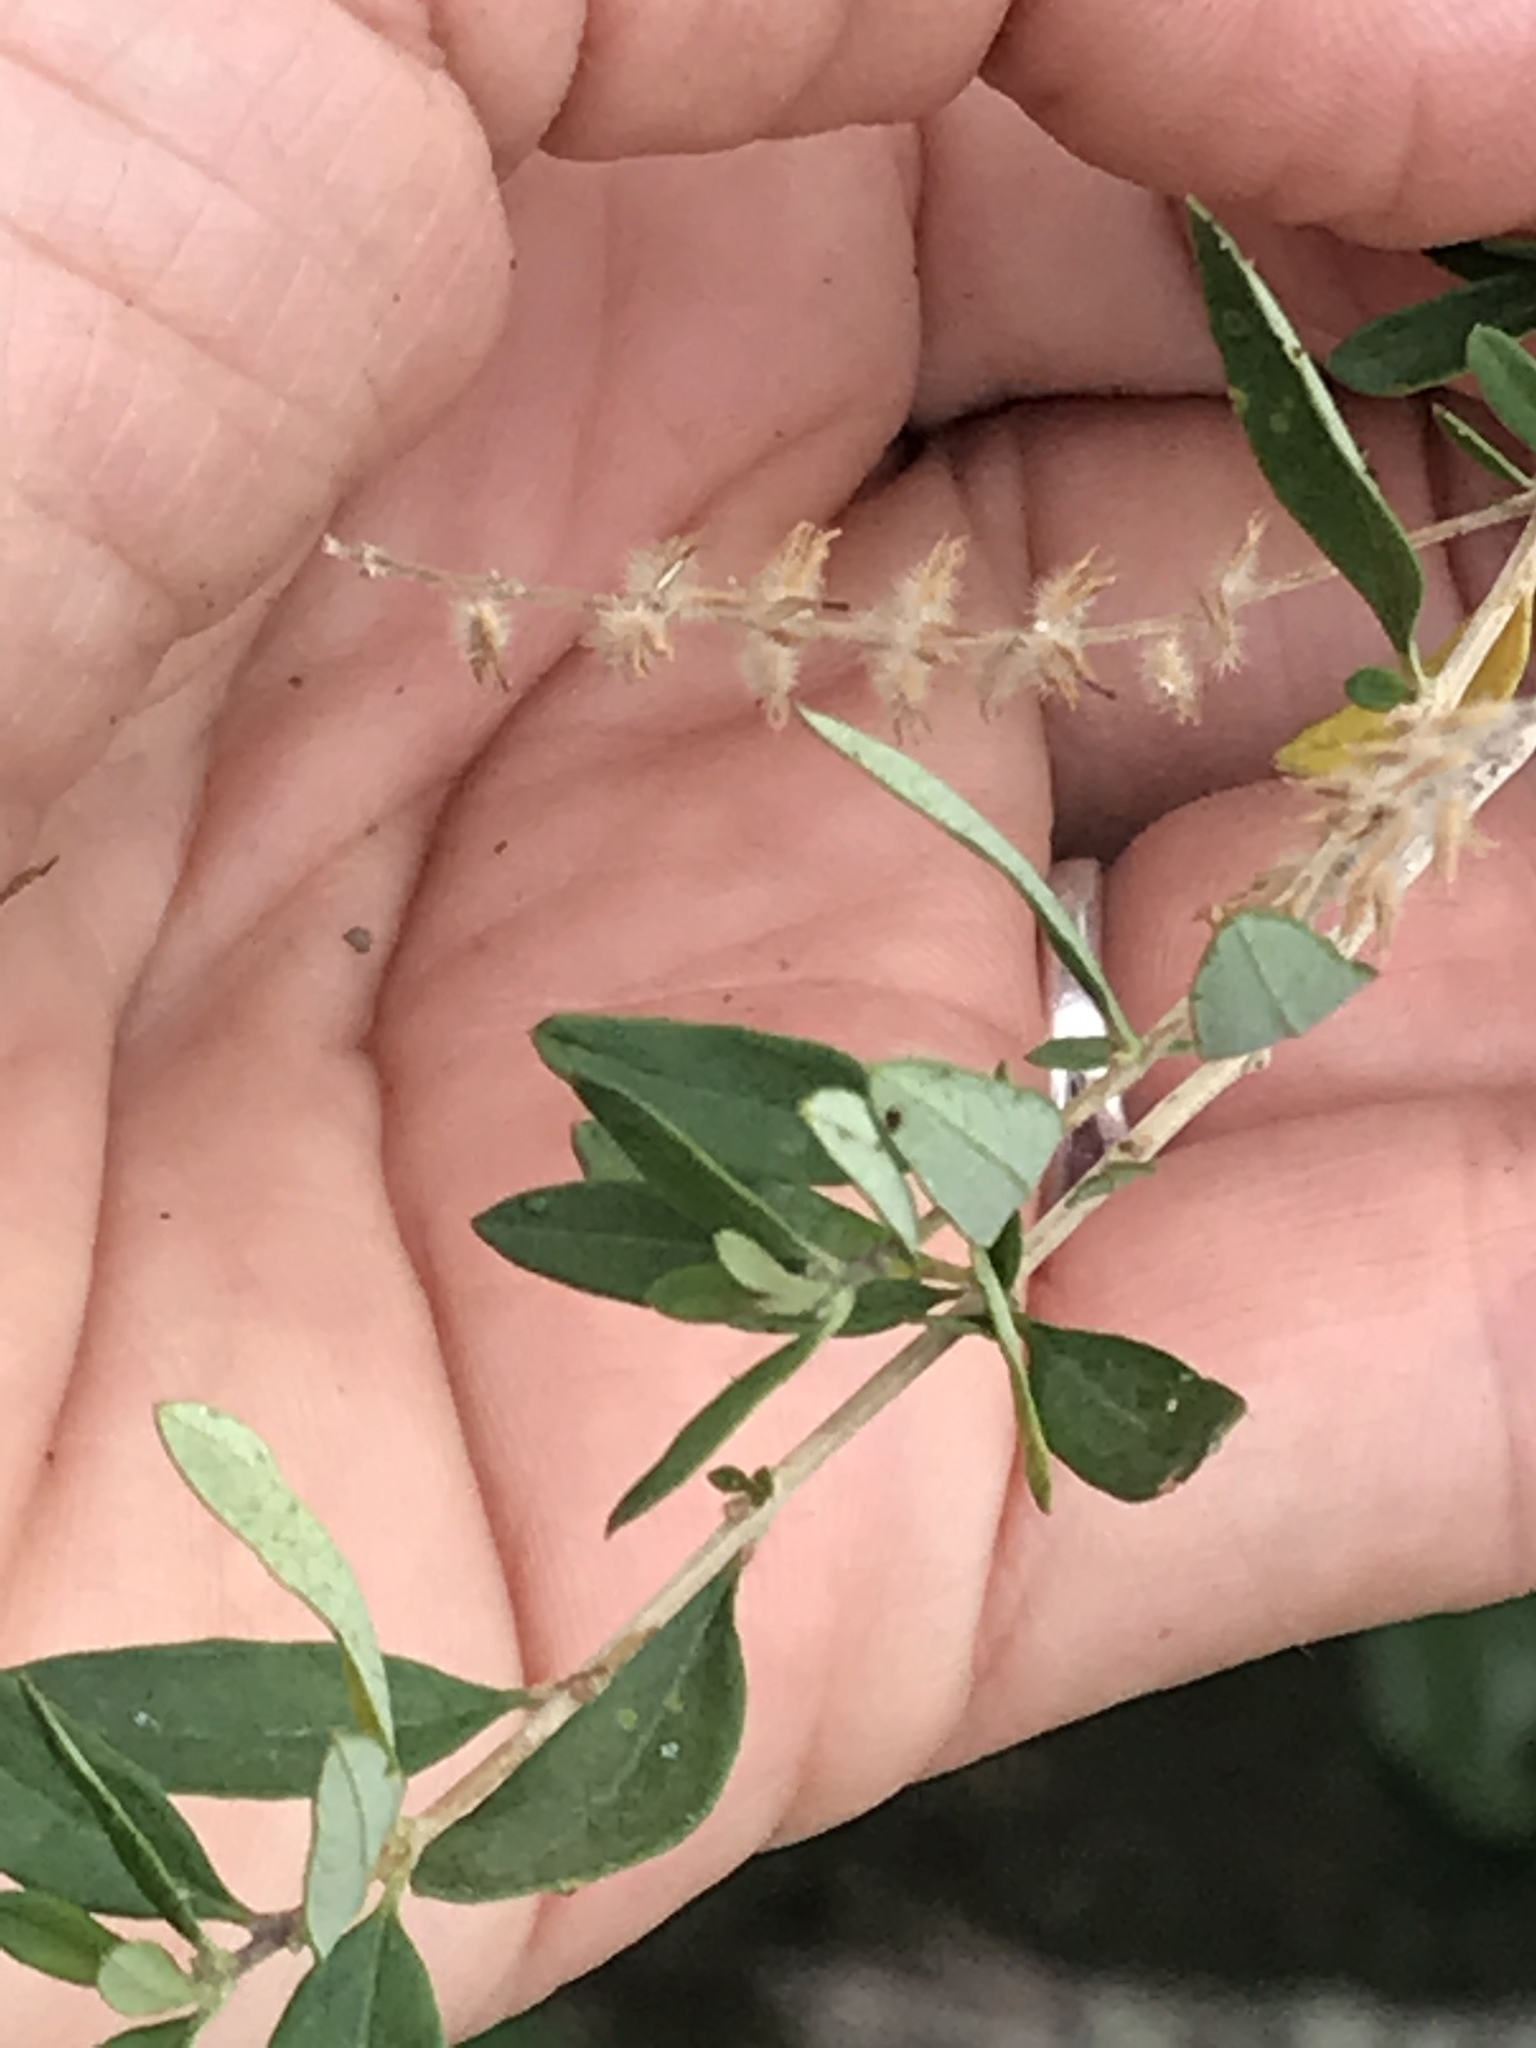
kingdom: Plantae
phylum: Tracheophyta
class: Magnoliopsida
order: Lamiales
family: Verbenaceae
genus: Aloysia
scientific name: Aloysia gratissima
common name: Common bee-brush
